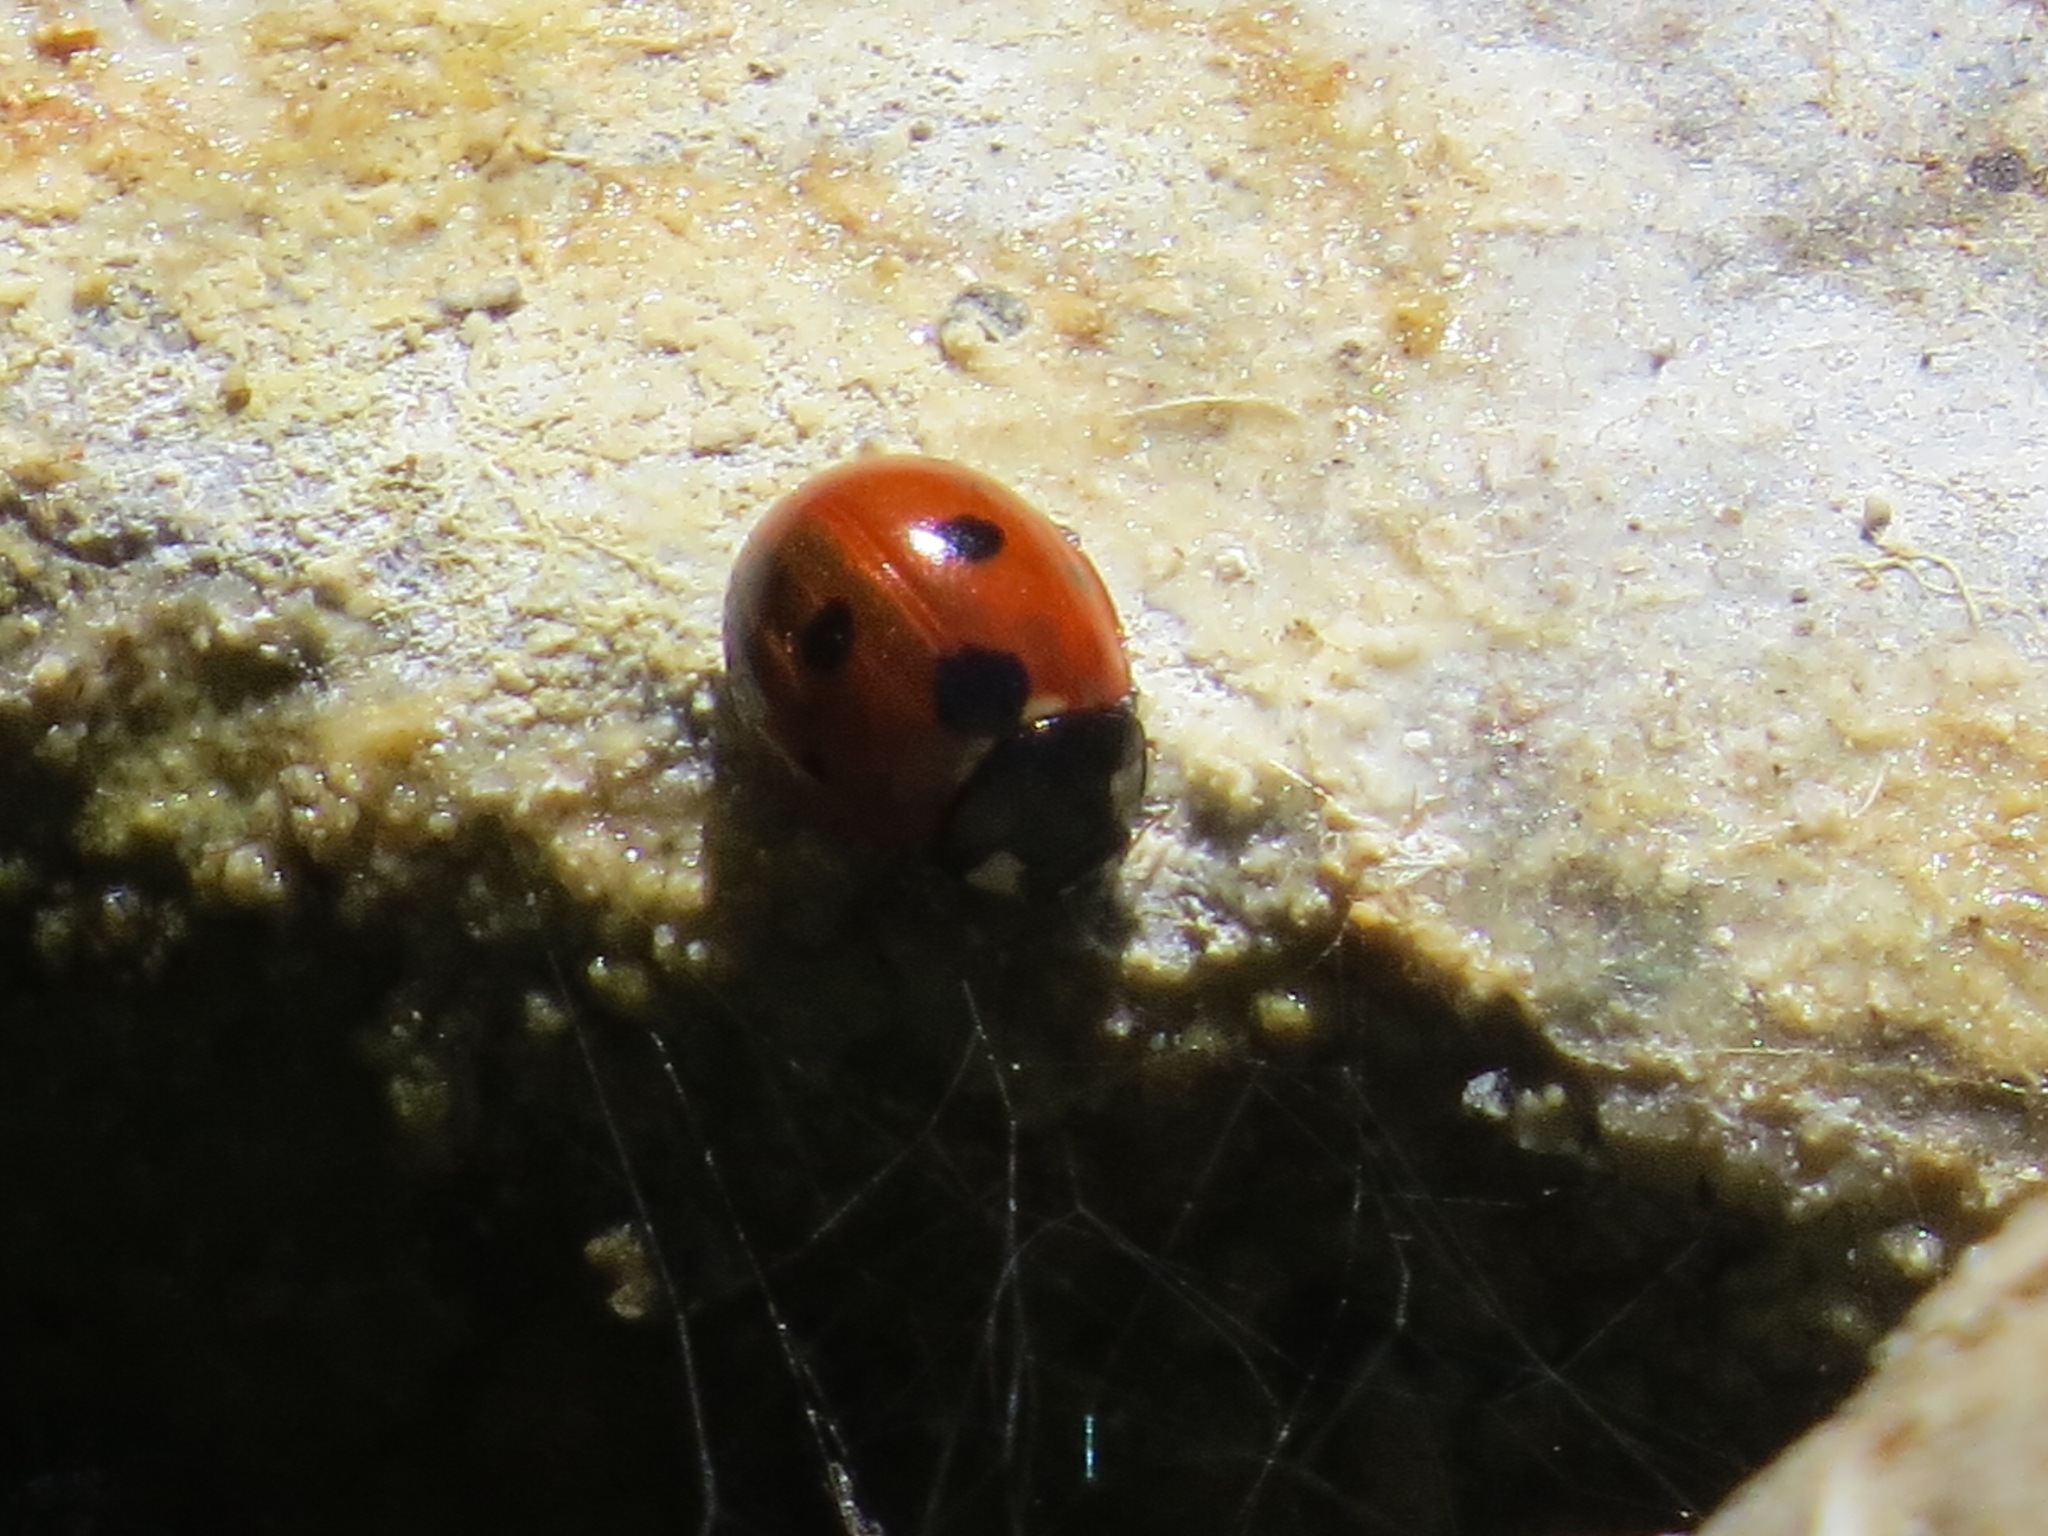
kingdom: Animalia
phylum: Arthropoda
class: Insecta
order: Coleoptera
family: Coccinellidae
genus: Coccinella
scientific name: Coccinella septempunctata
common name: Sevenspotted lady beetle
